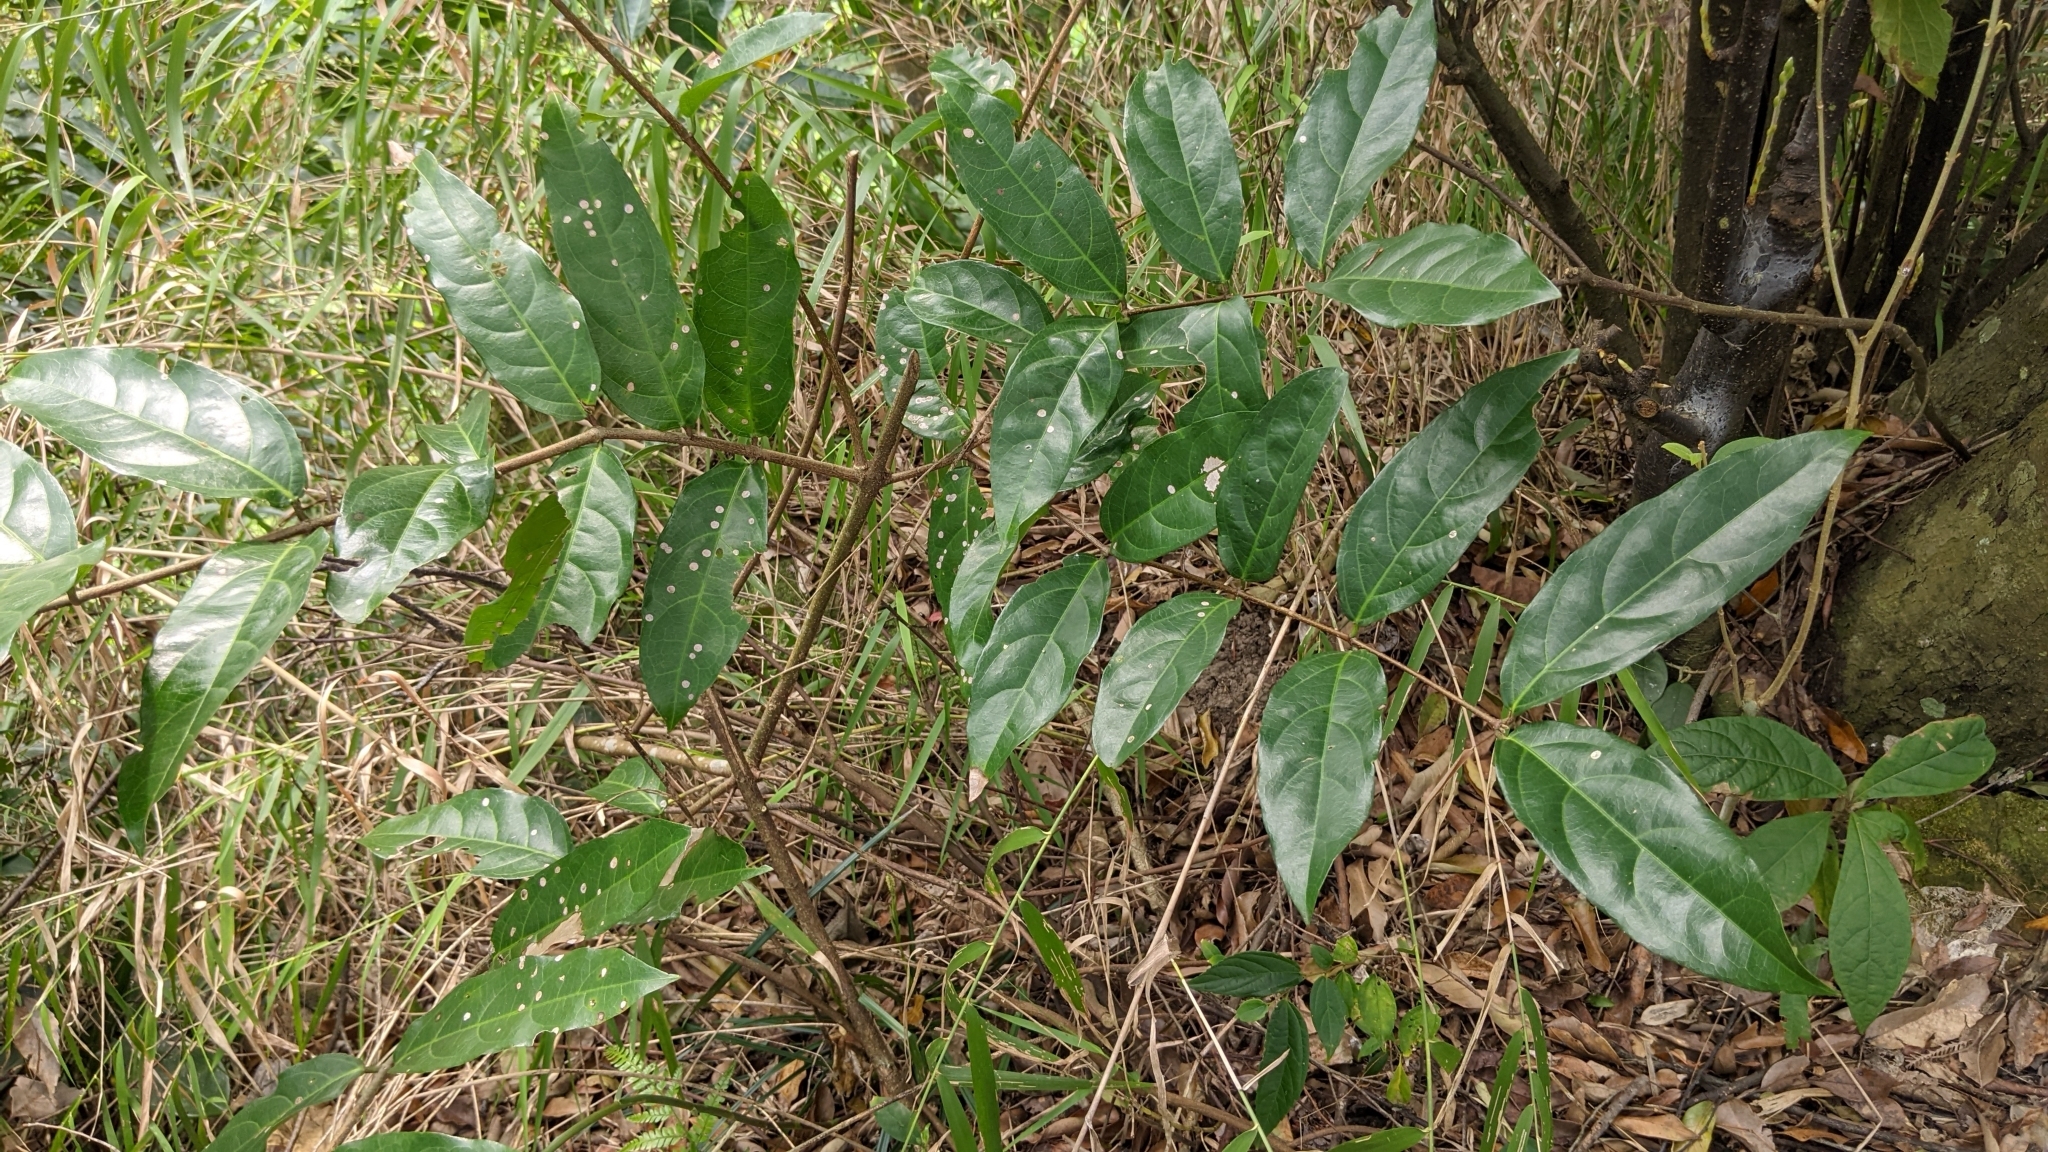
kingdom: Plantae
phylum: Tracheophyta
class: Magnoliopsida
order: Malpighiales
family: Malpighiaceae
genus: Hiptage
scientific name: Hiptage benghalensis
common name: Hiptage
